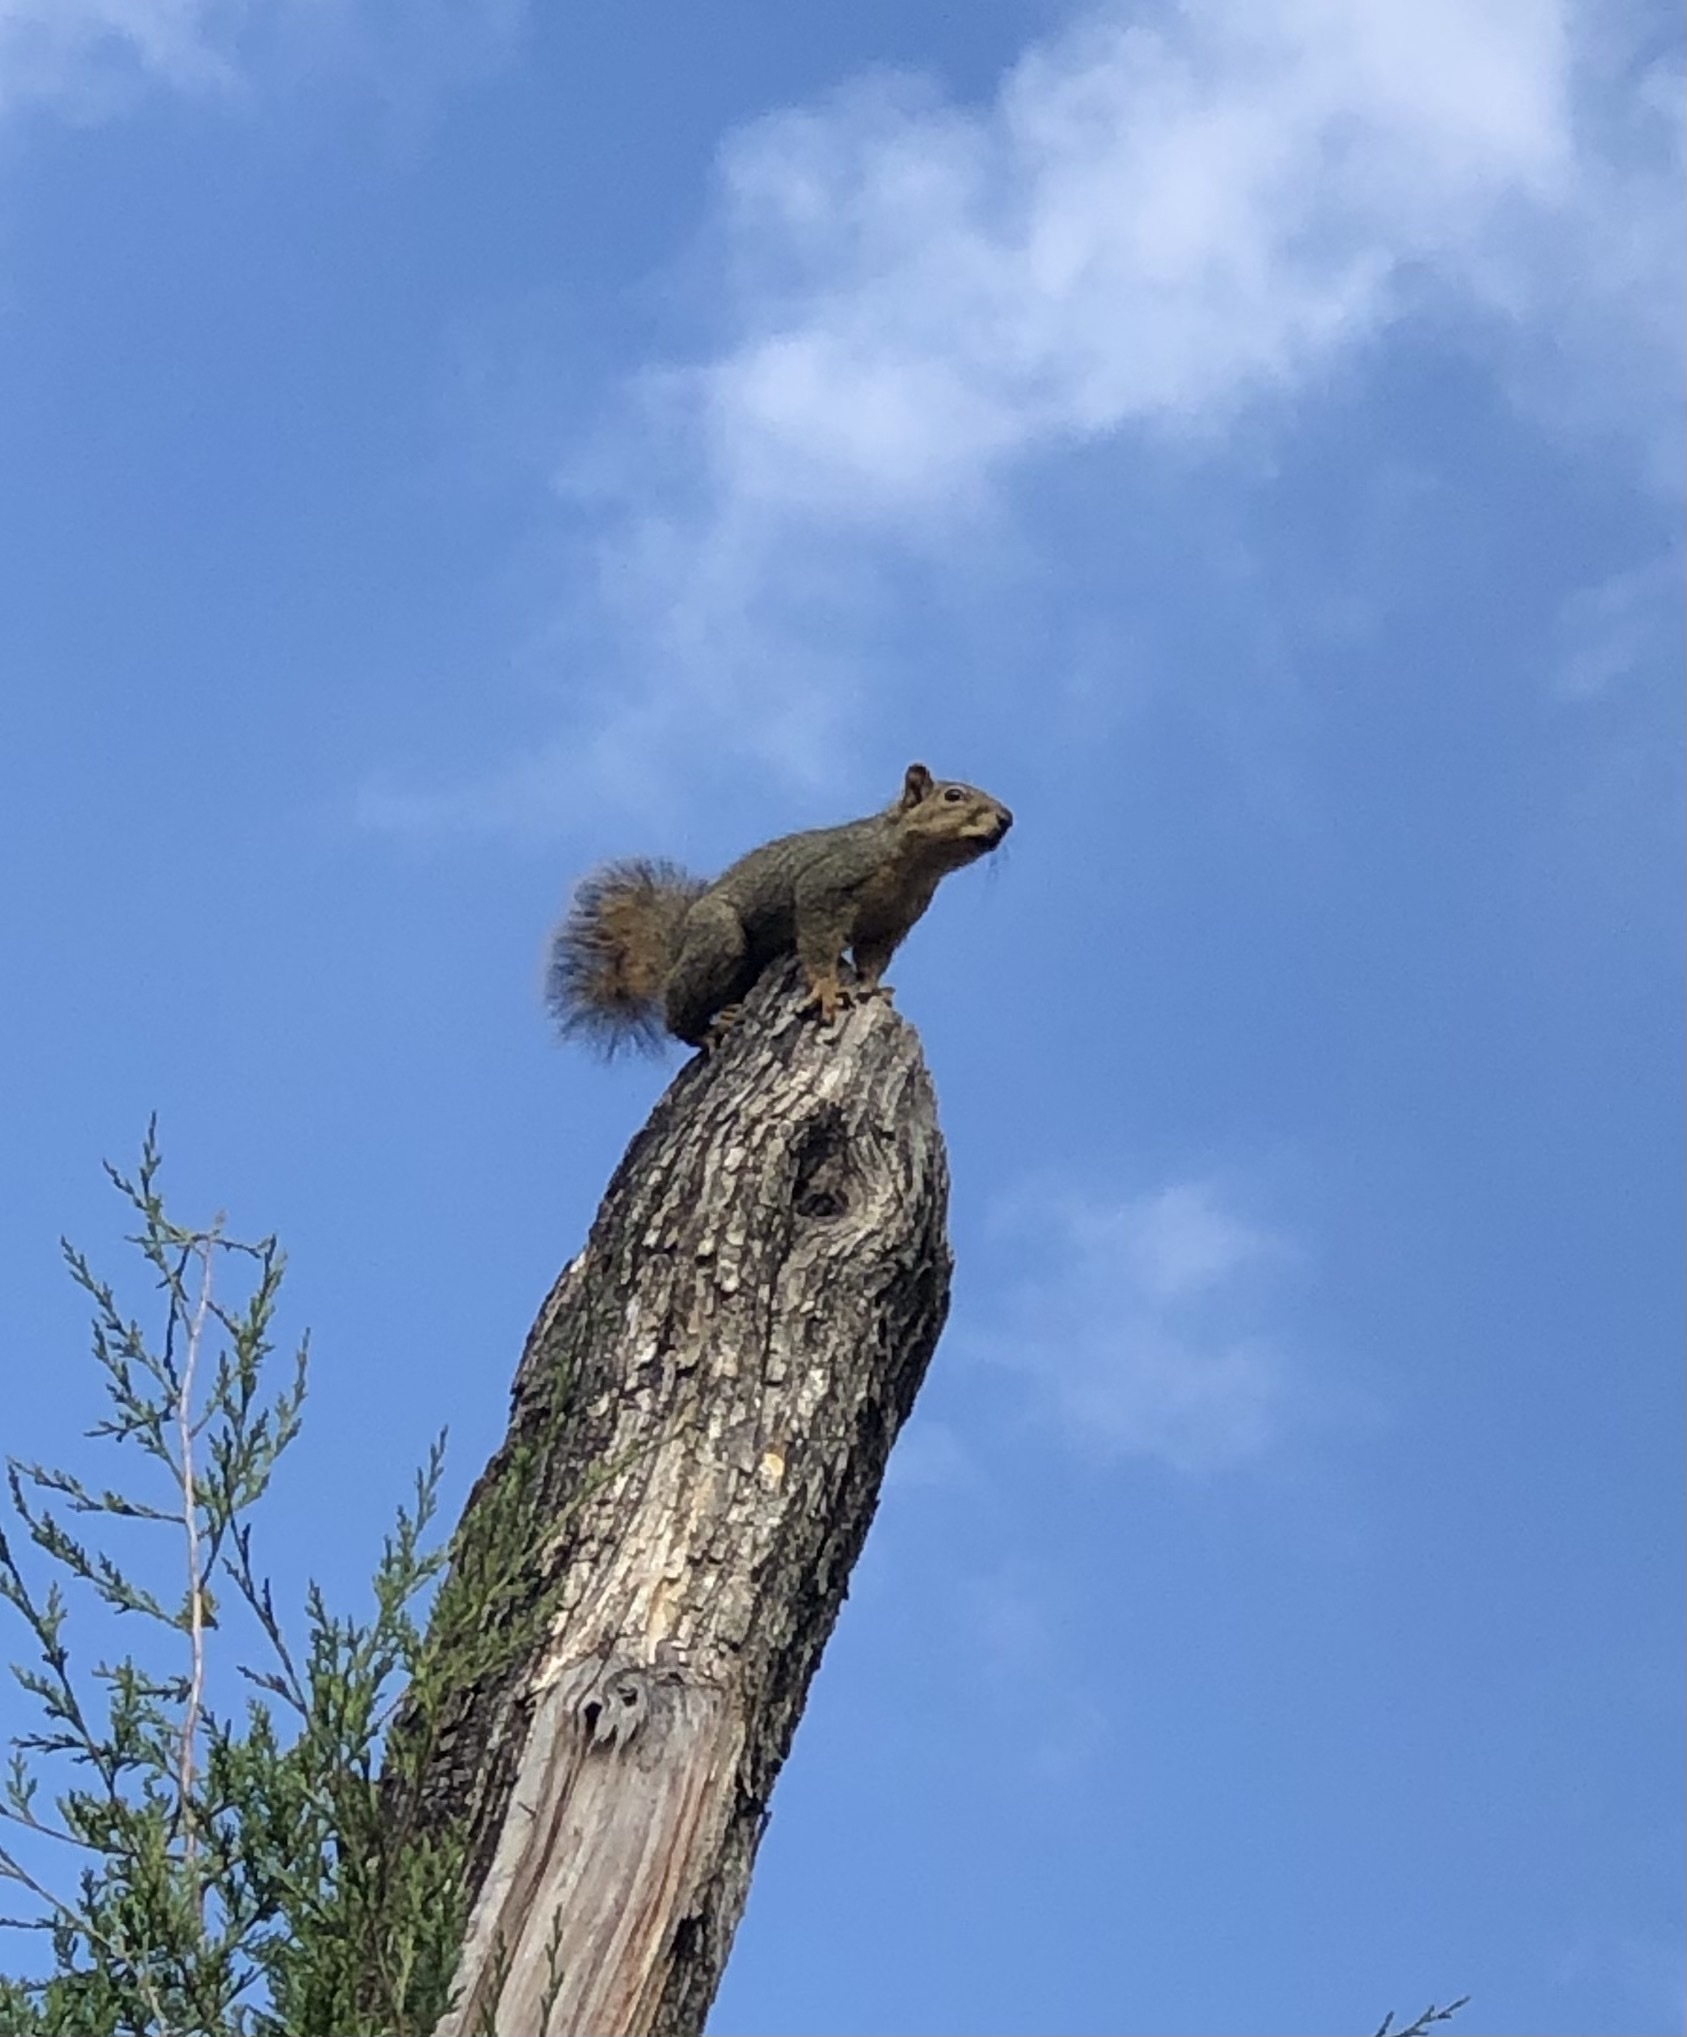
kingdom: Animalia
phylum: Chordata
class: Mammalia
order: Rodentia
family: Sciuridae
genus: Sciurus
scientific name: Sciurus niger
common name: Fox squirrel
